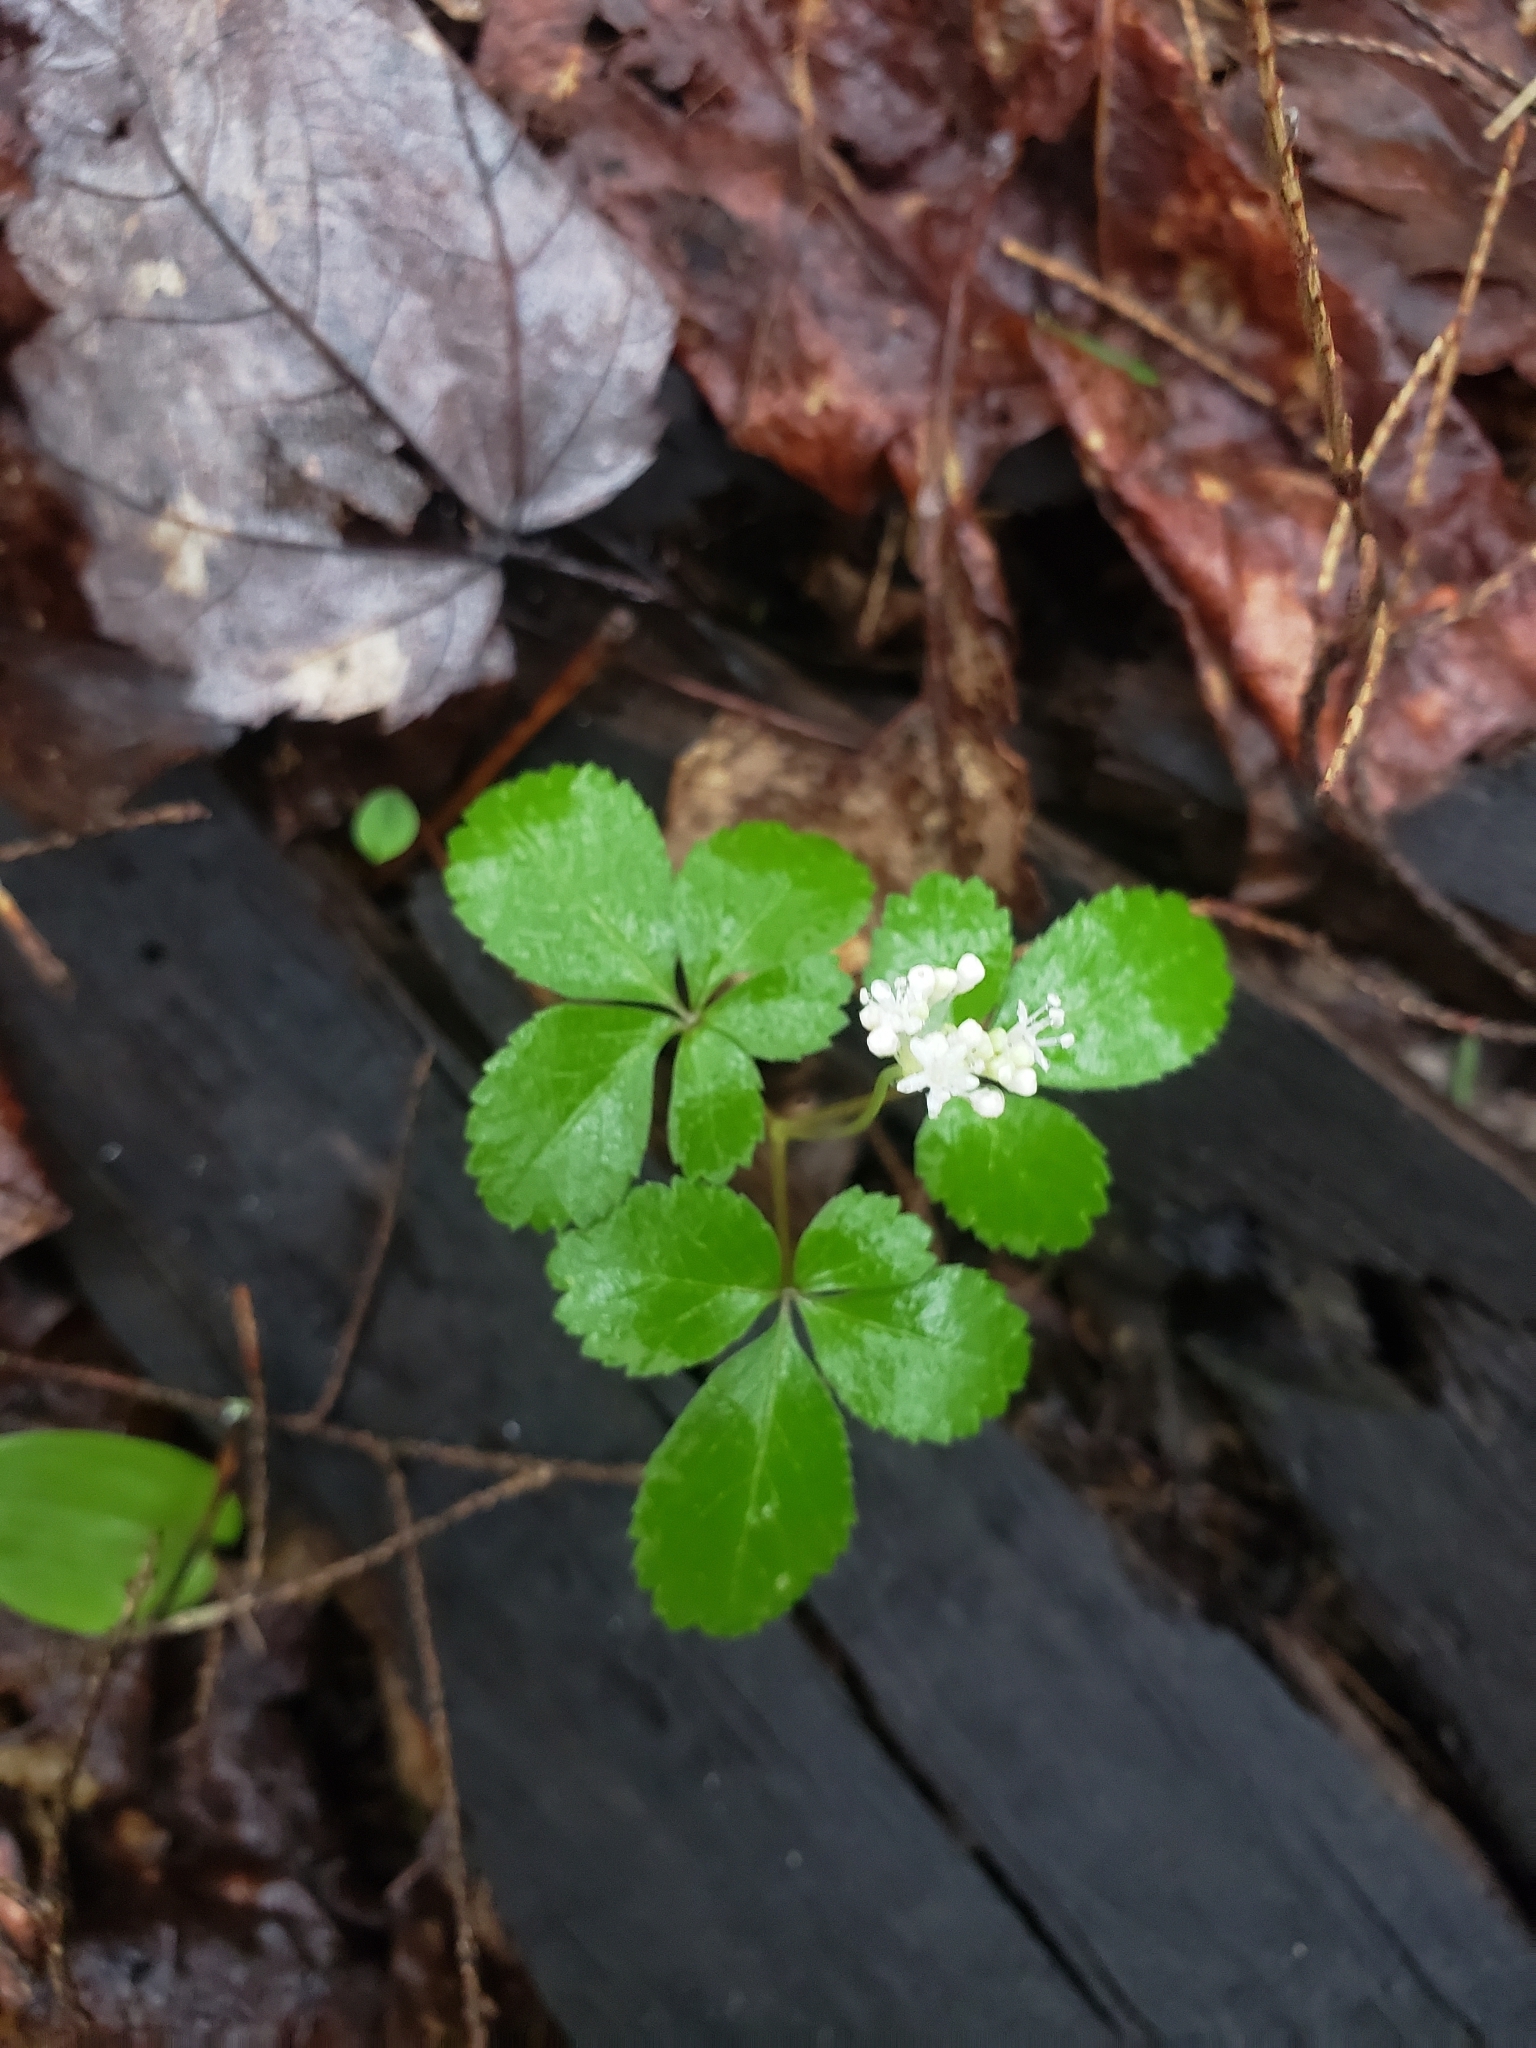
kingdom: Plantae
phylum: Tracheophyta
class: Magnoliopsida
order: Apiales
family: Araliaceae
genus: Panax
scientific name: Panax trifolius
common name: Dwarf ginseng
